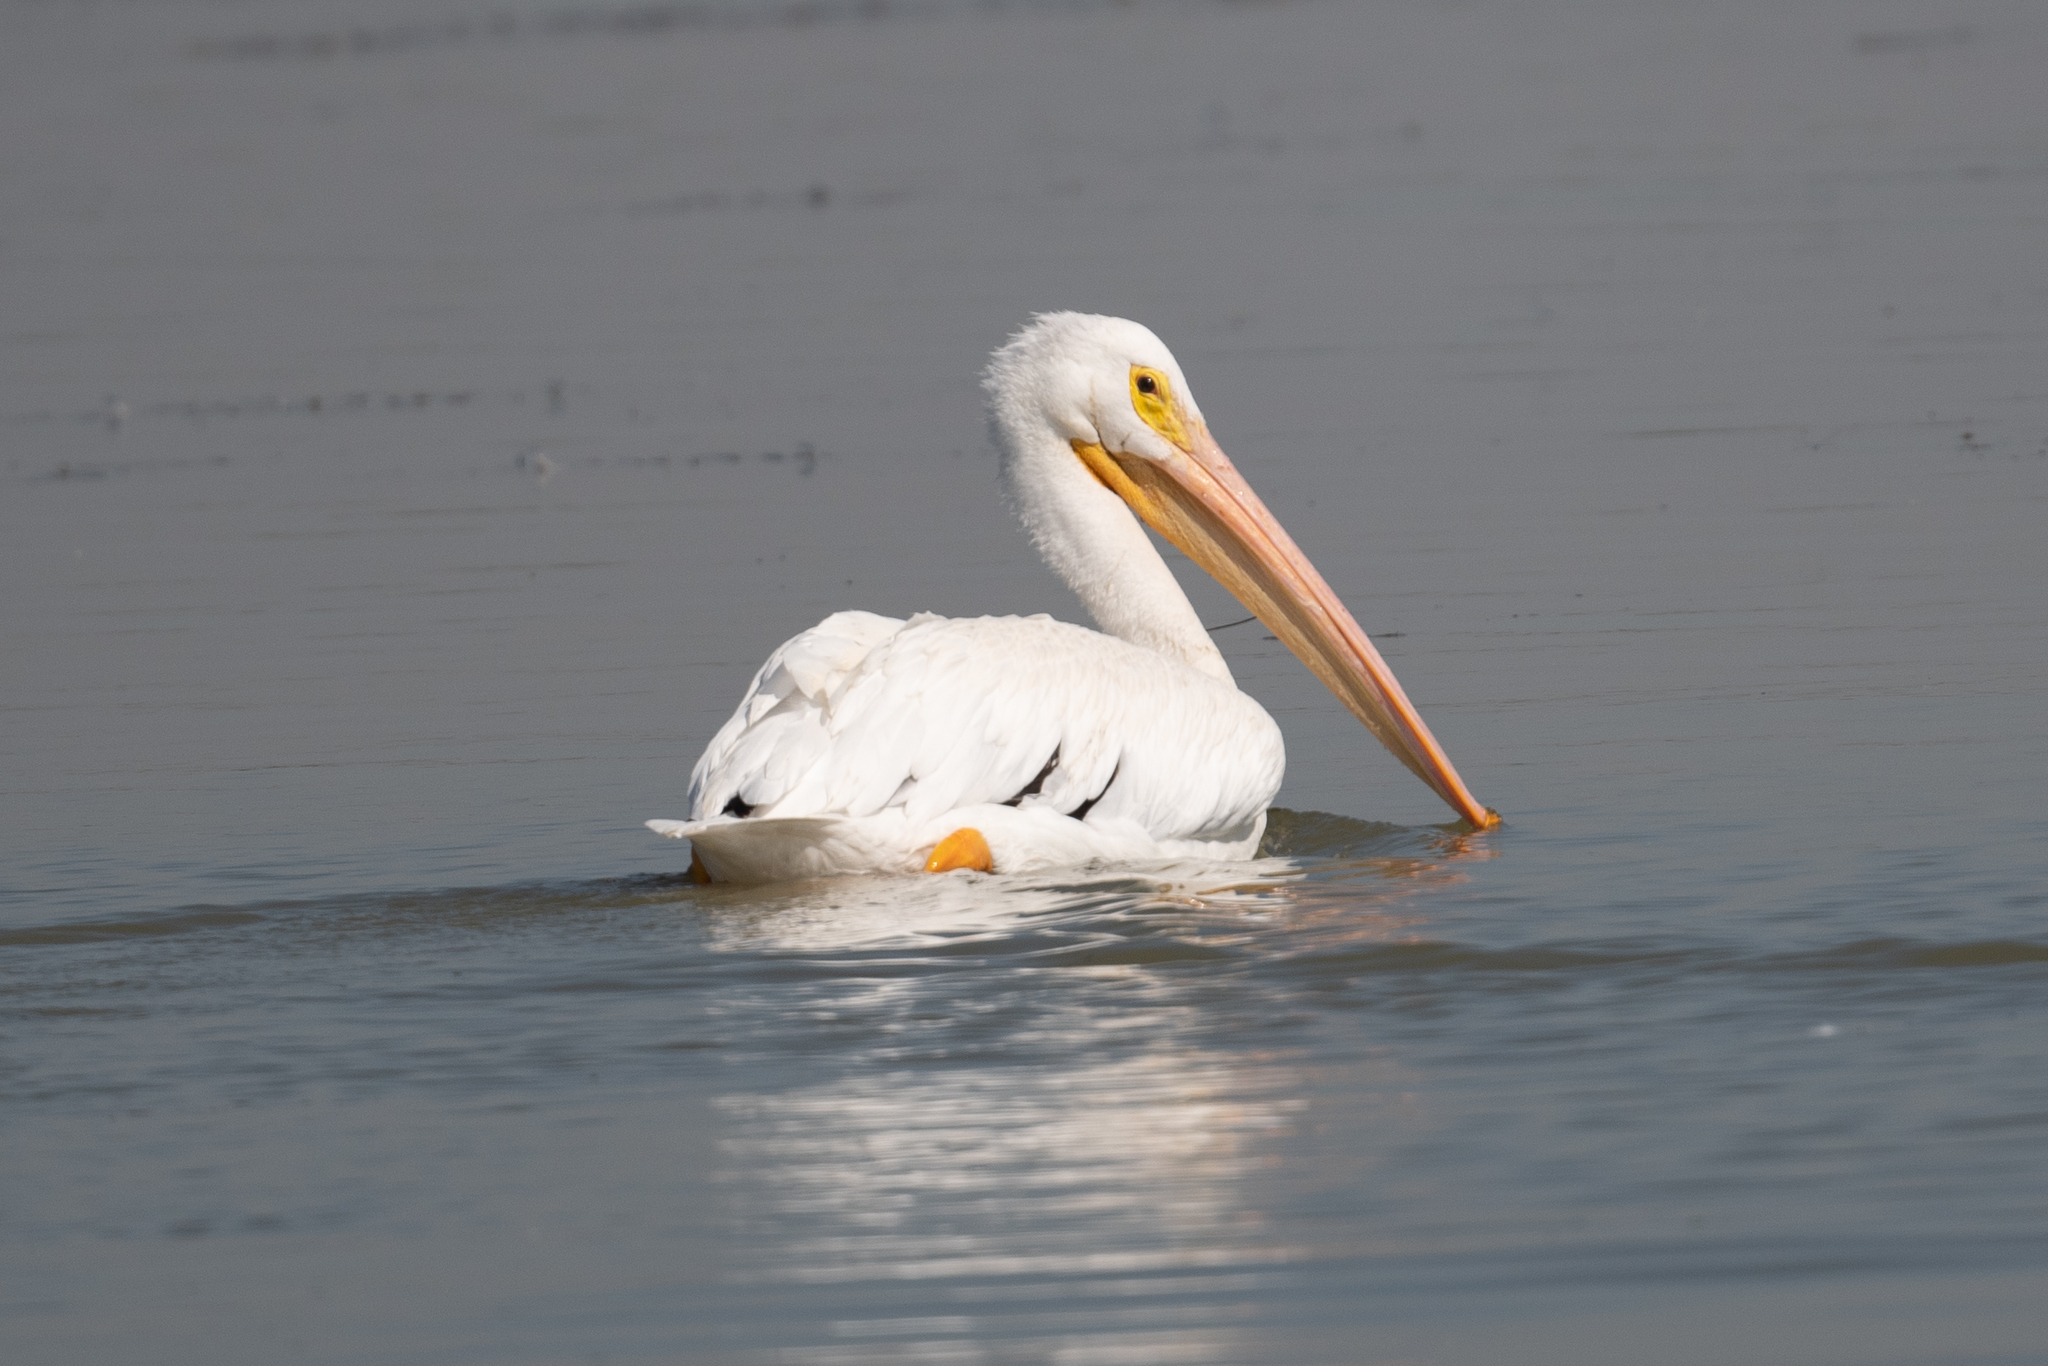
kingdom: Animalia
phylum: Chordata
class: Aves
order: Pelecaniformes
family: Pelecanidae
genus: Pelecanus
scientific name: Pelecanus erythrorhynchos
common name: American white pelican
